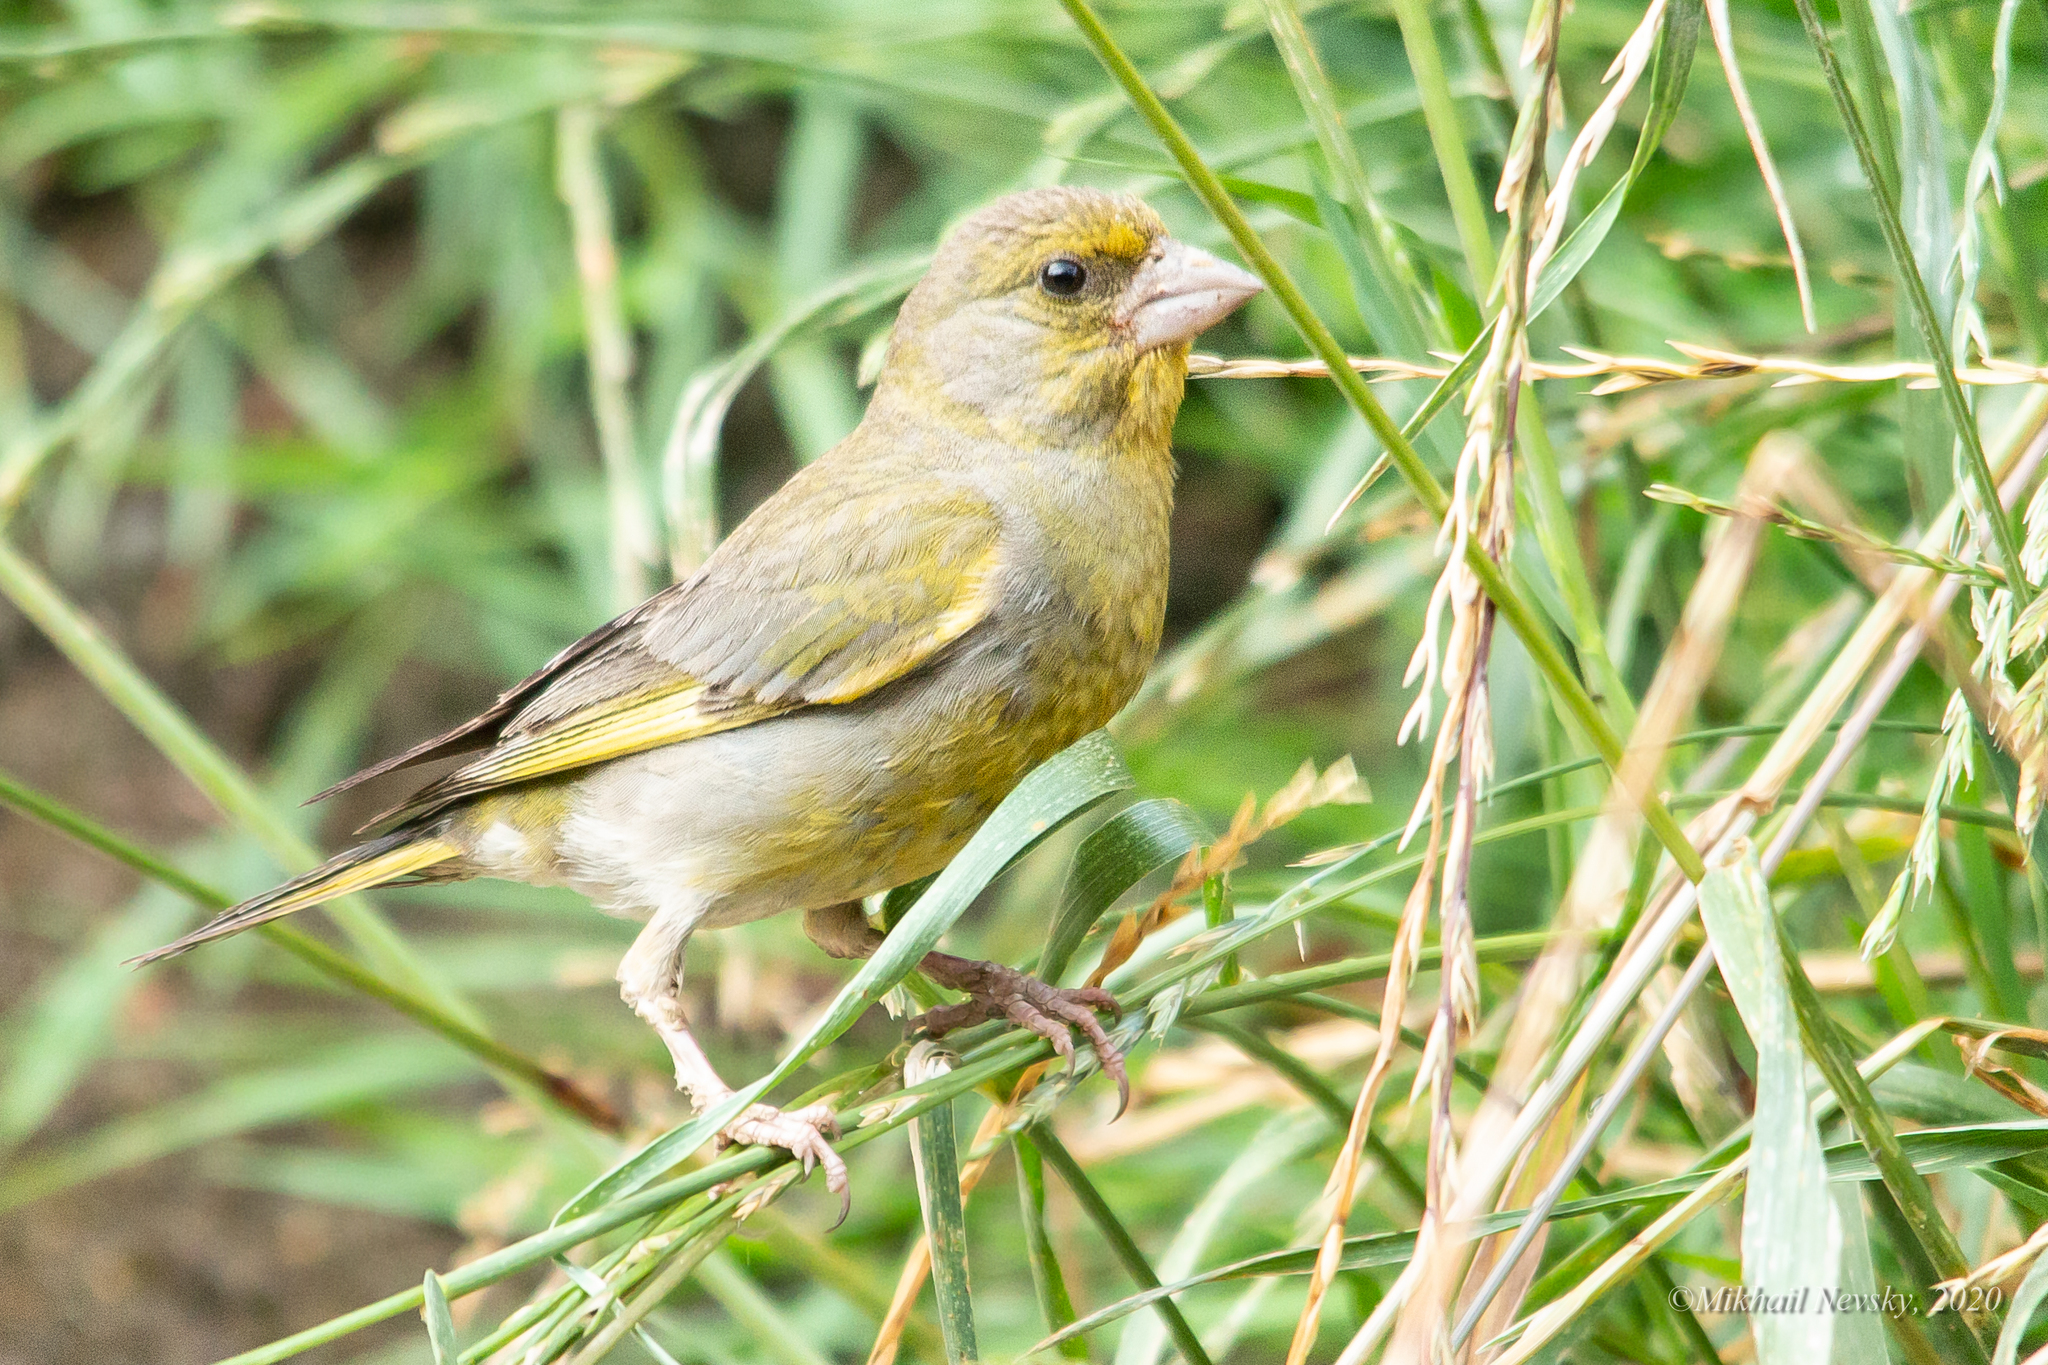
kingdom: Plantae
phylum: Tracheophyta
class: Liliopsida
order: Poales
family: Poaceae
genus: Chloris
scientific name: Chloris chloris
